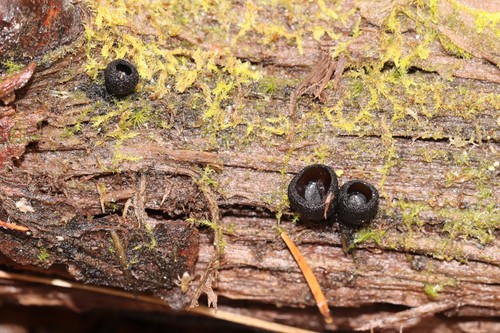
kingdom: Fungi
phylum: Ascomycota
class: Pezizomycetes
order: Pezizales
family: Sarcosomataceae
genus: Pseudoplectania
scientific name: Pseudoplectania nigrella
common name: Ebony cup
